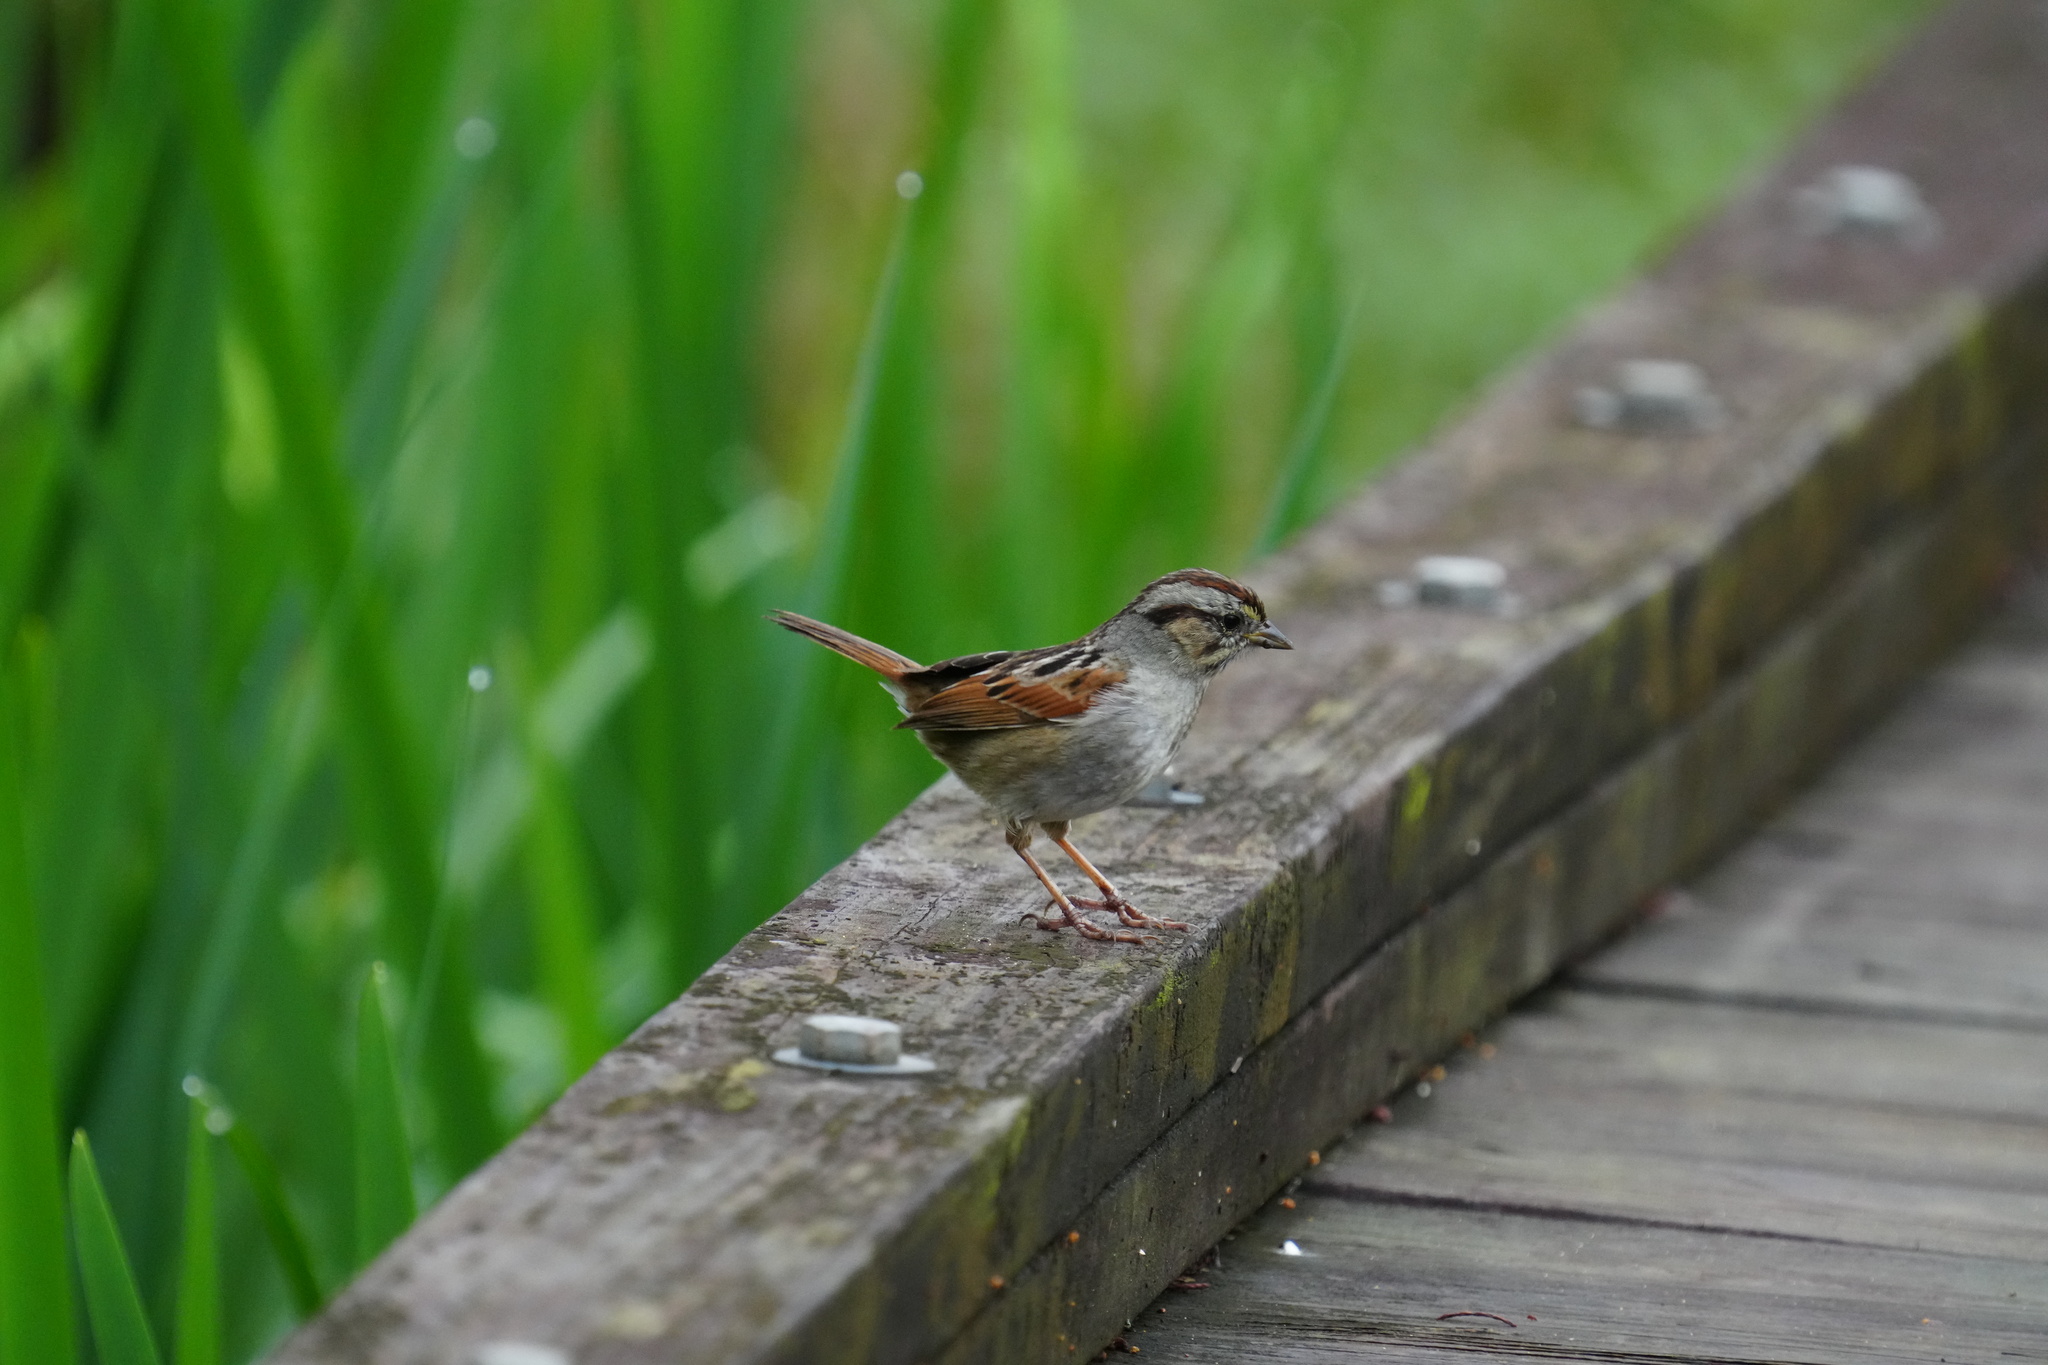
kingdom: Animalia
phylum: Chordata
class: Aves
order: Passeriformes
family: Passerellidae
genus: Melospiza
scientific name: Melospiza georgiana
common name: Swamp sparrow
